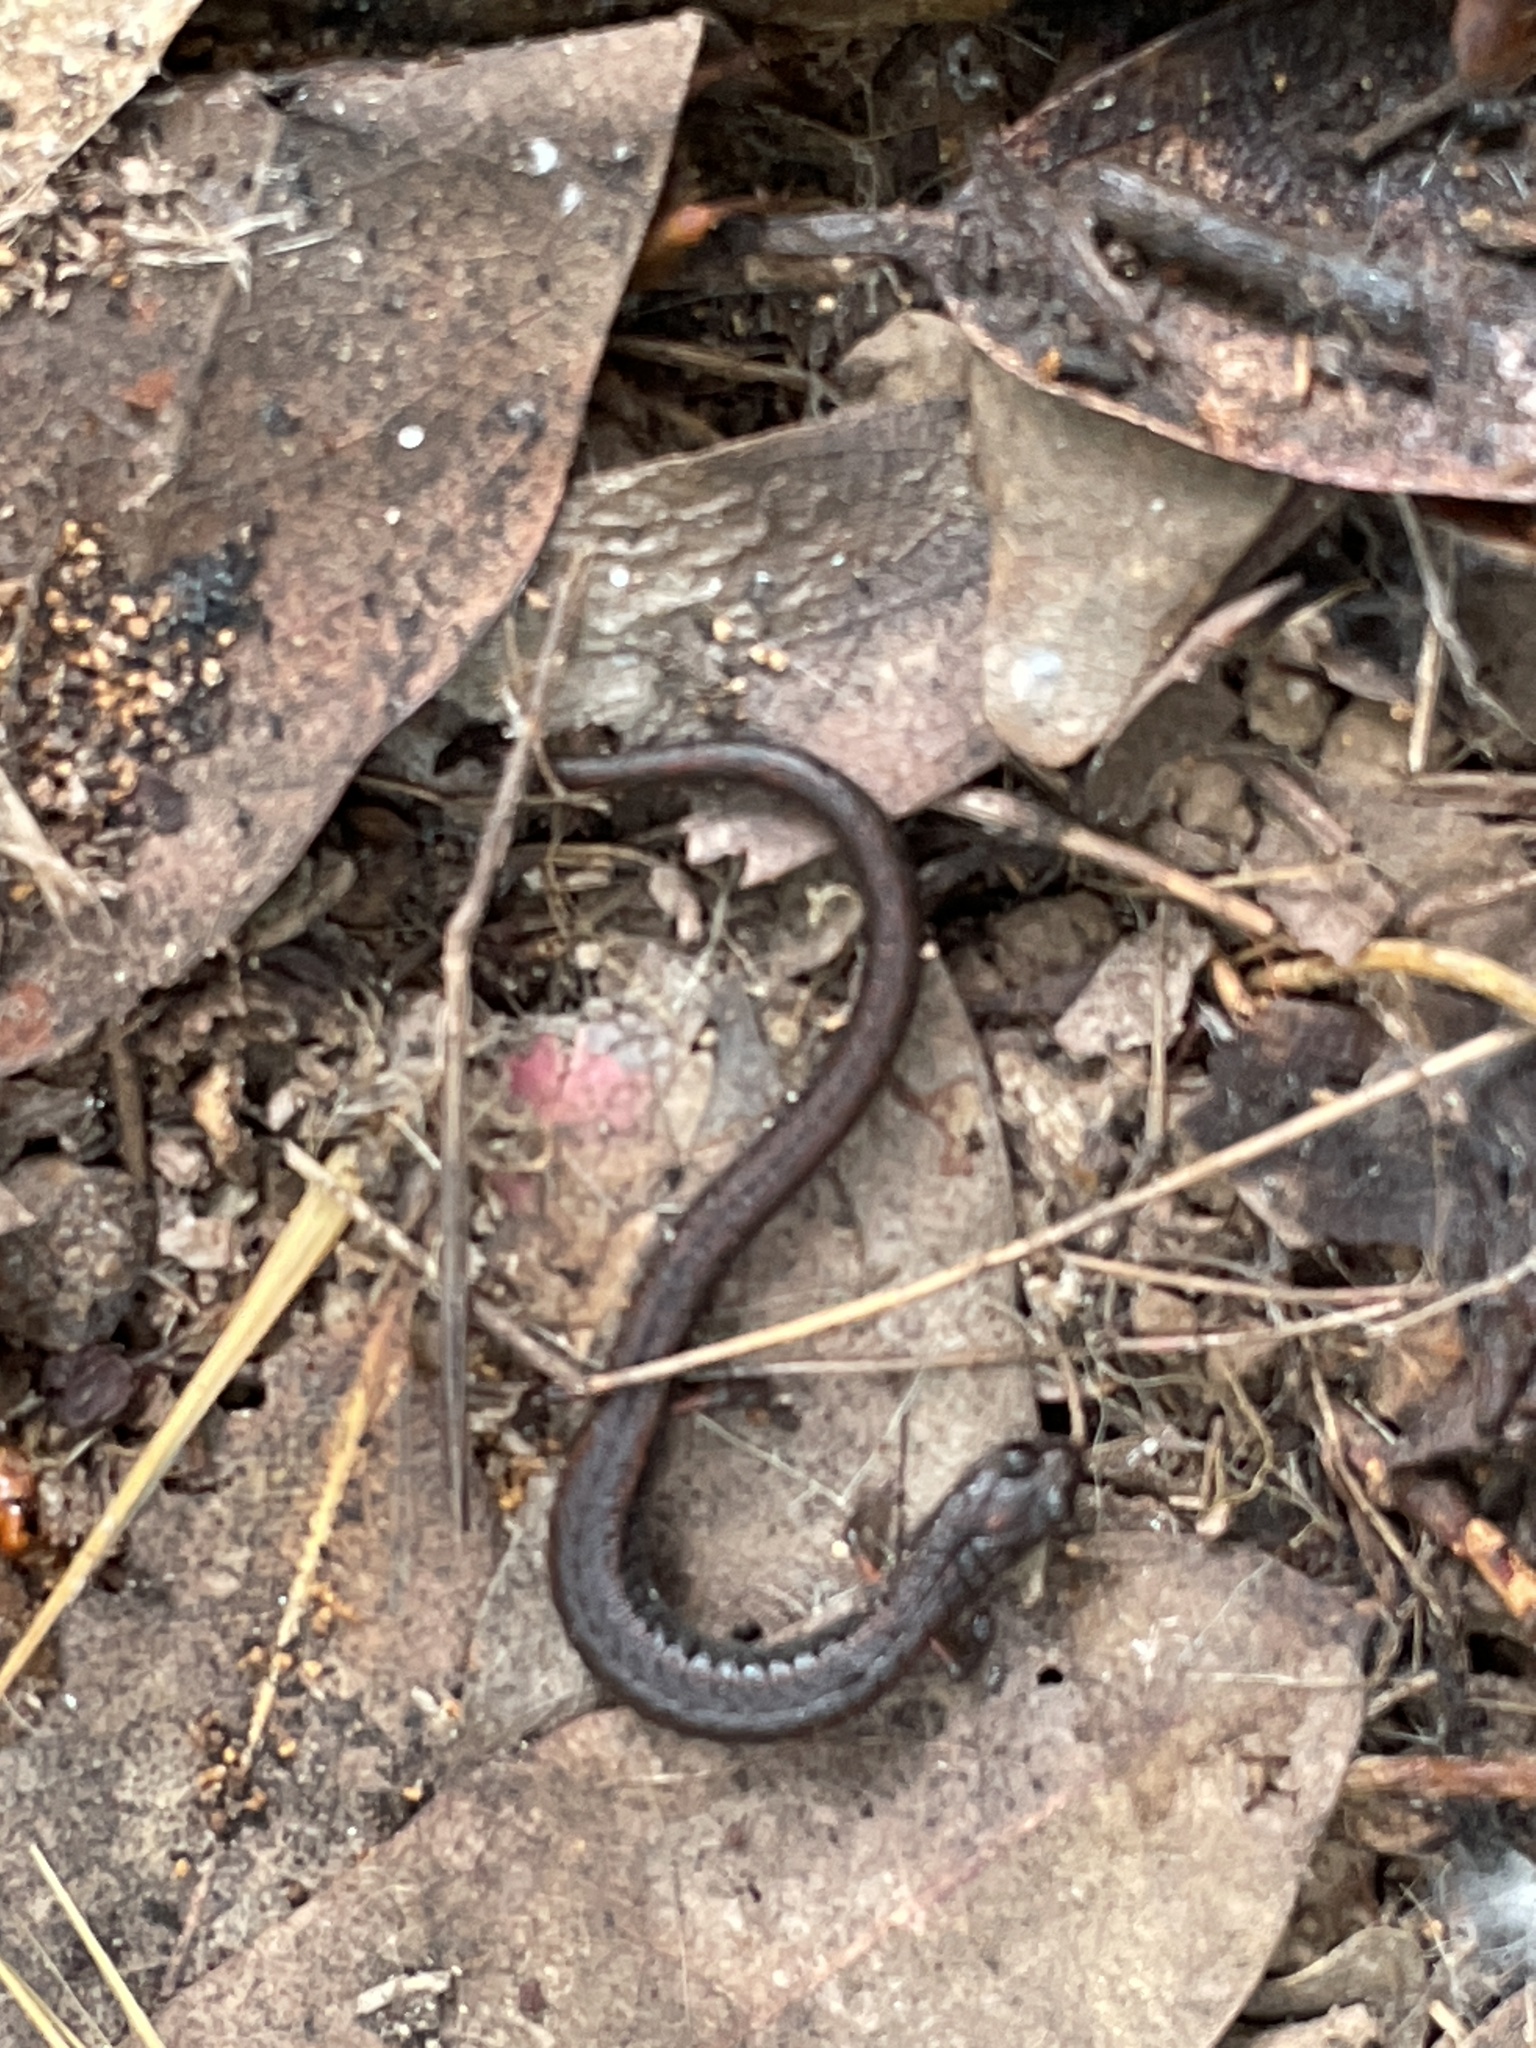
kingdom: Animalia
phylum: Chordata
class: Amphibia
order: Caudata
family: Plethodontidae
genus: Batrachoseps
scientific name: Batrachoseps attenuatus
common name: California slender salamander
